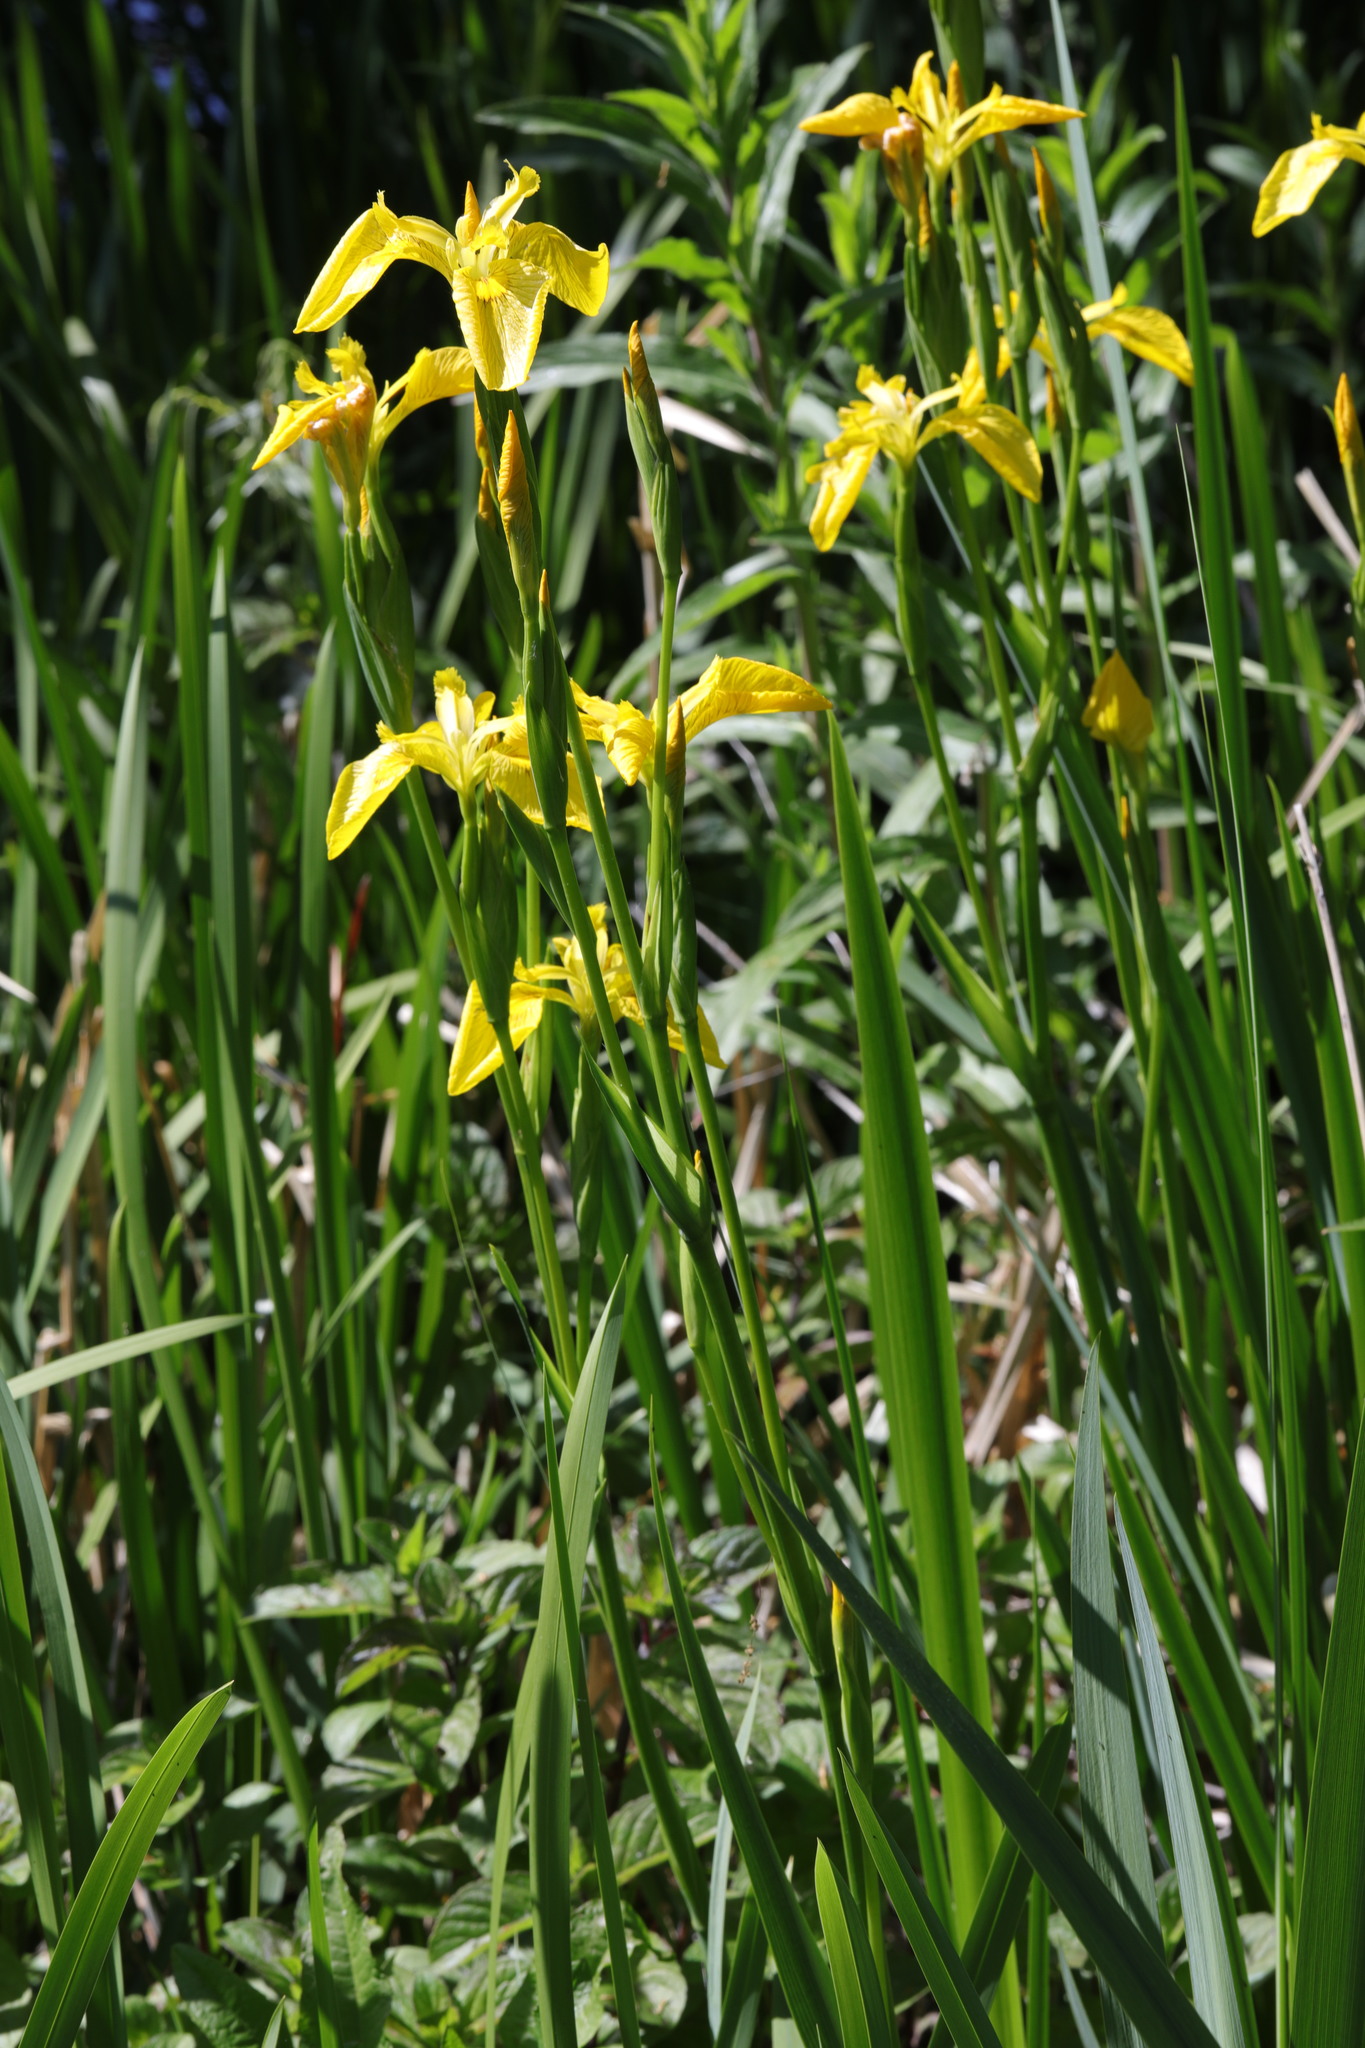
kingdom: Plantae
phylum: Tracheophyta
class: Liliopsida
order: Asparagales
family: Iridaceae
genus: Iris
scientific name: Iris pseudacorus
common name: Yellow flag
